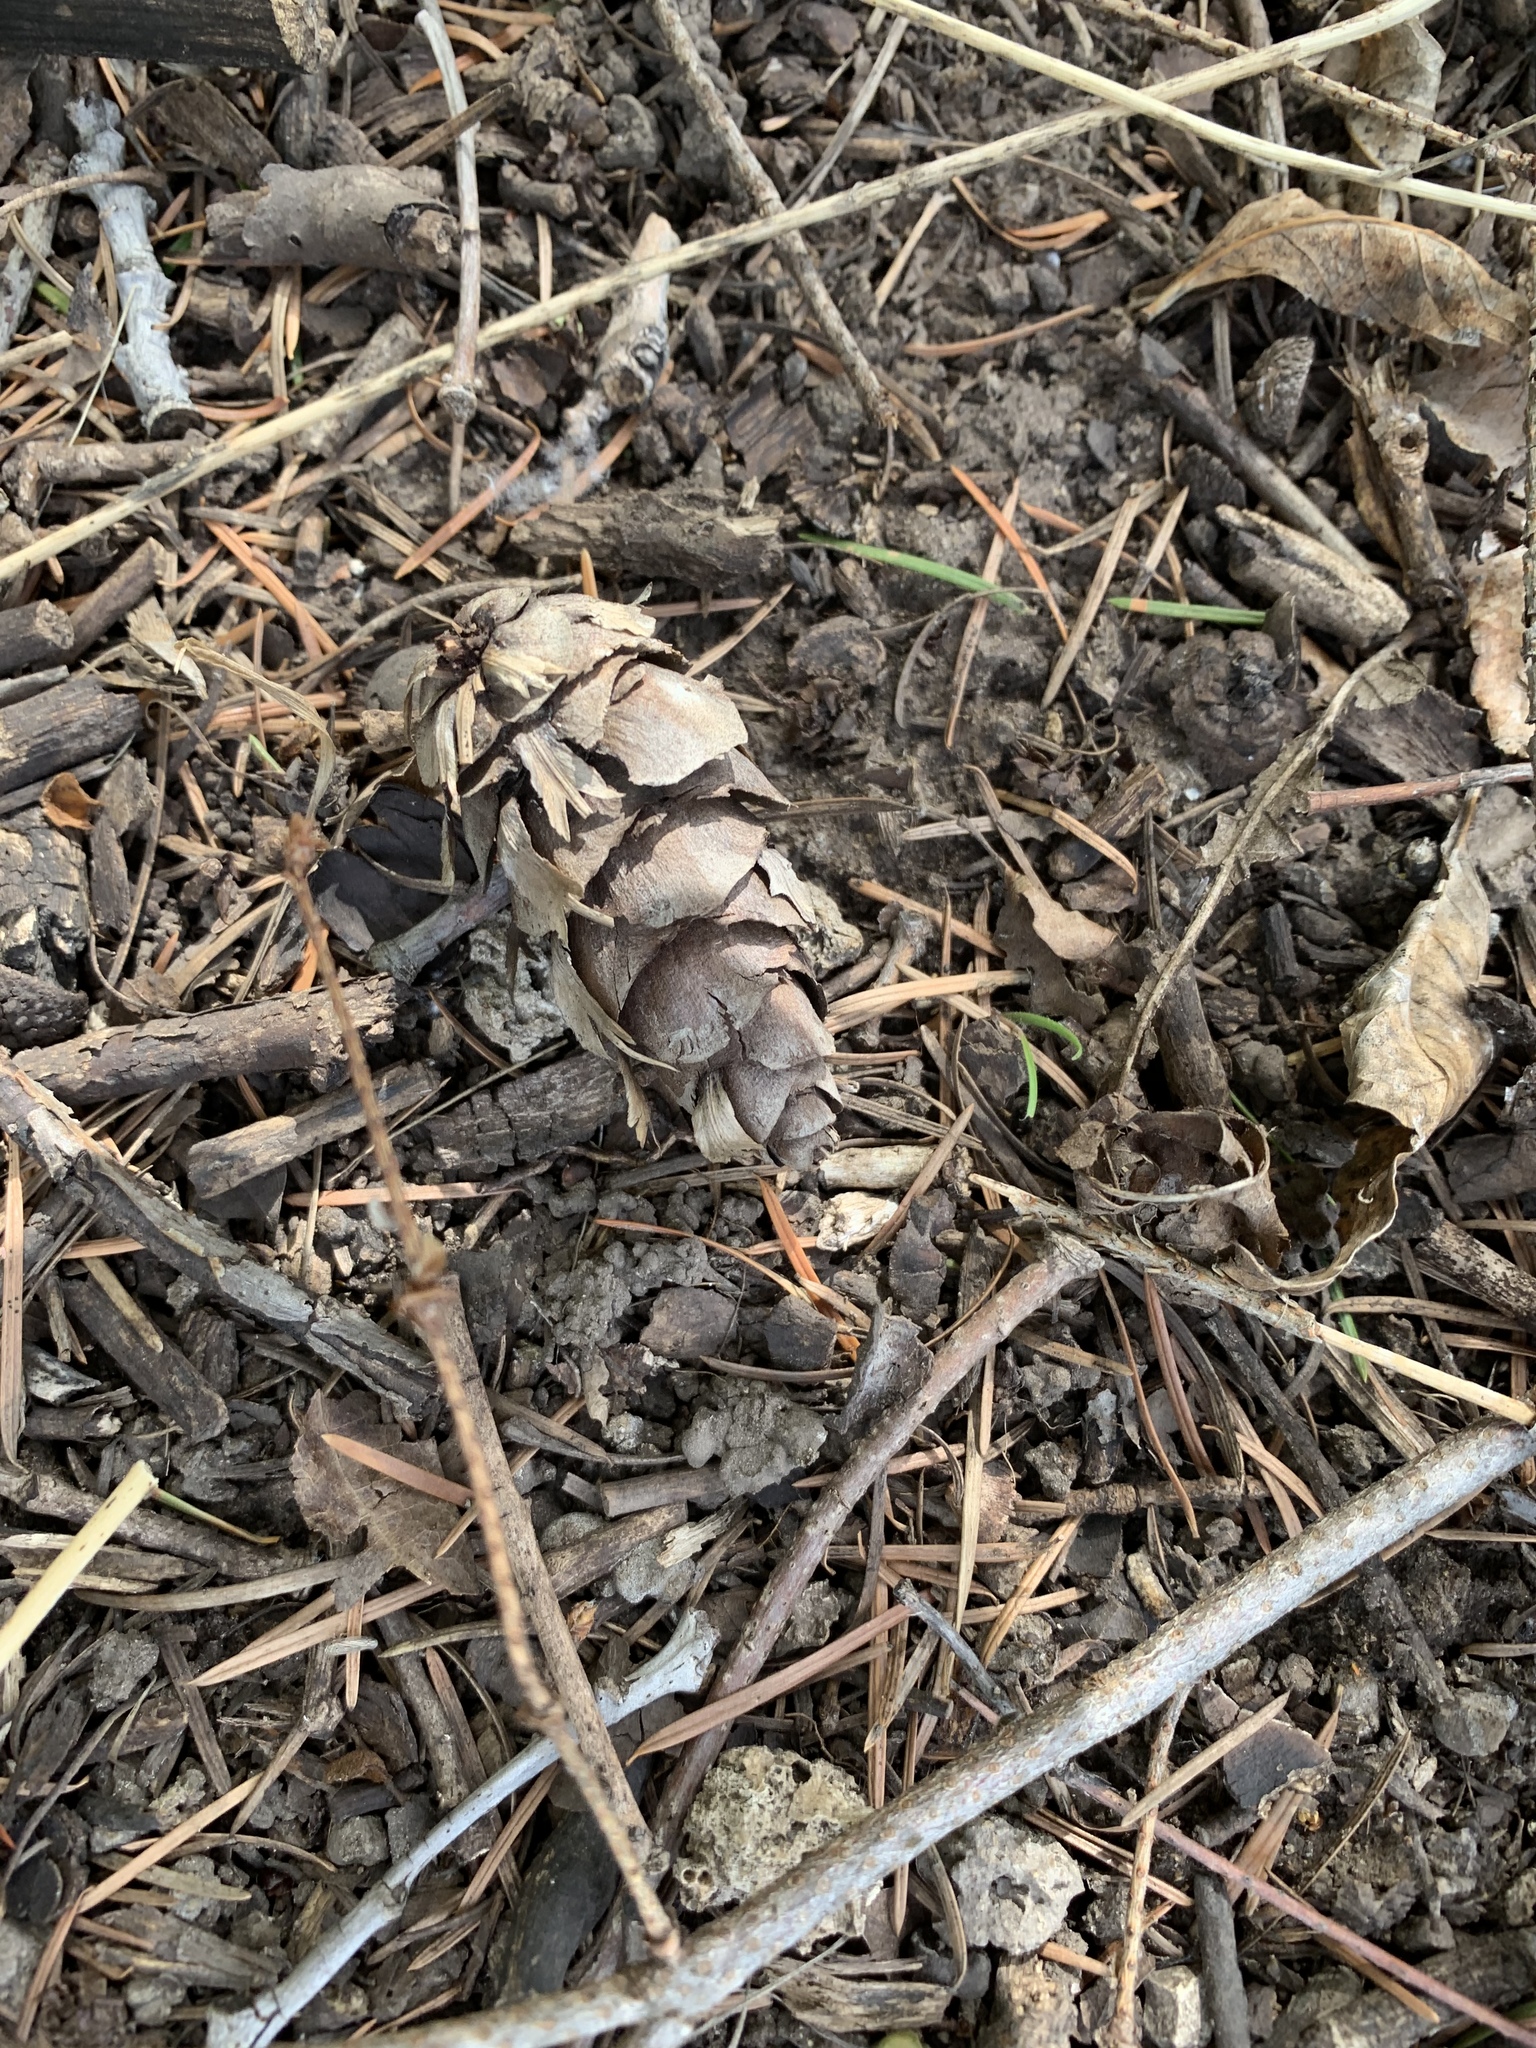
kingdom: Plantae
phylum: Tracheophyta
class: Pinopsida
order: Pinales
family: Pinaceae
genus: Pseudotsuga
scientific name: Pseudotsuga menziesii
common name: Douglas fir
